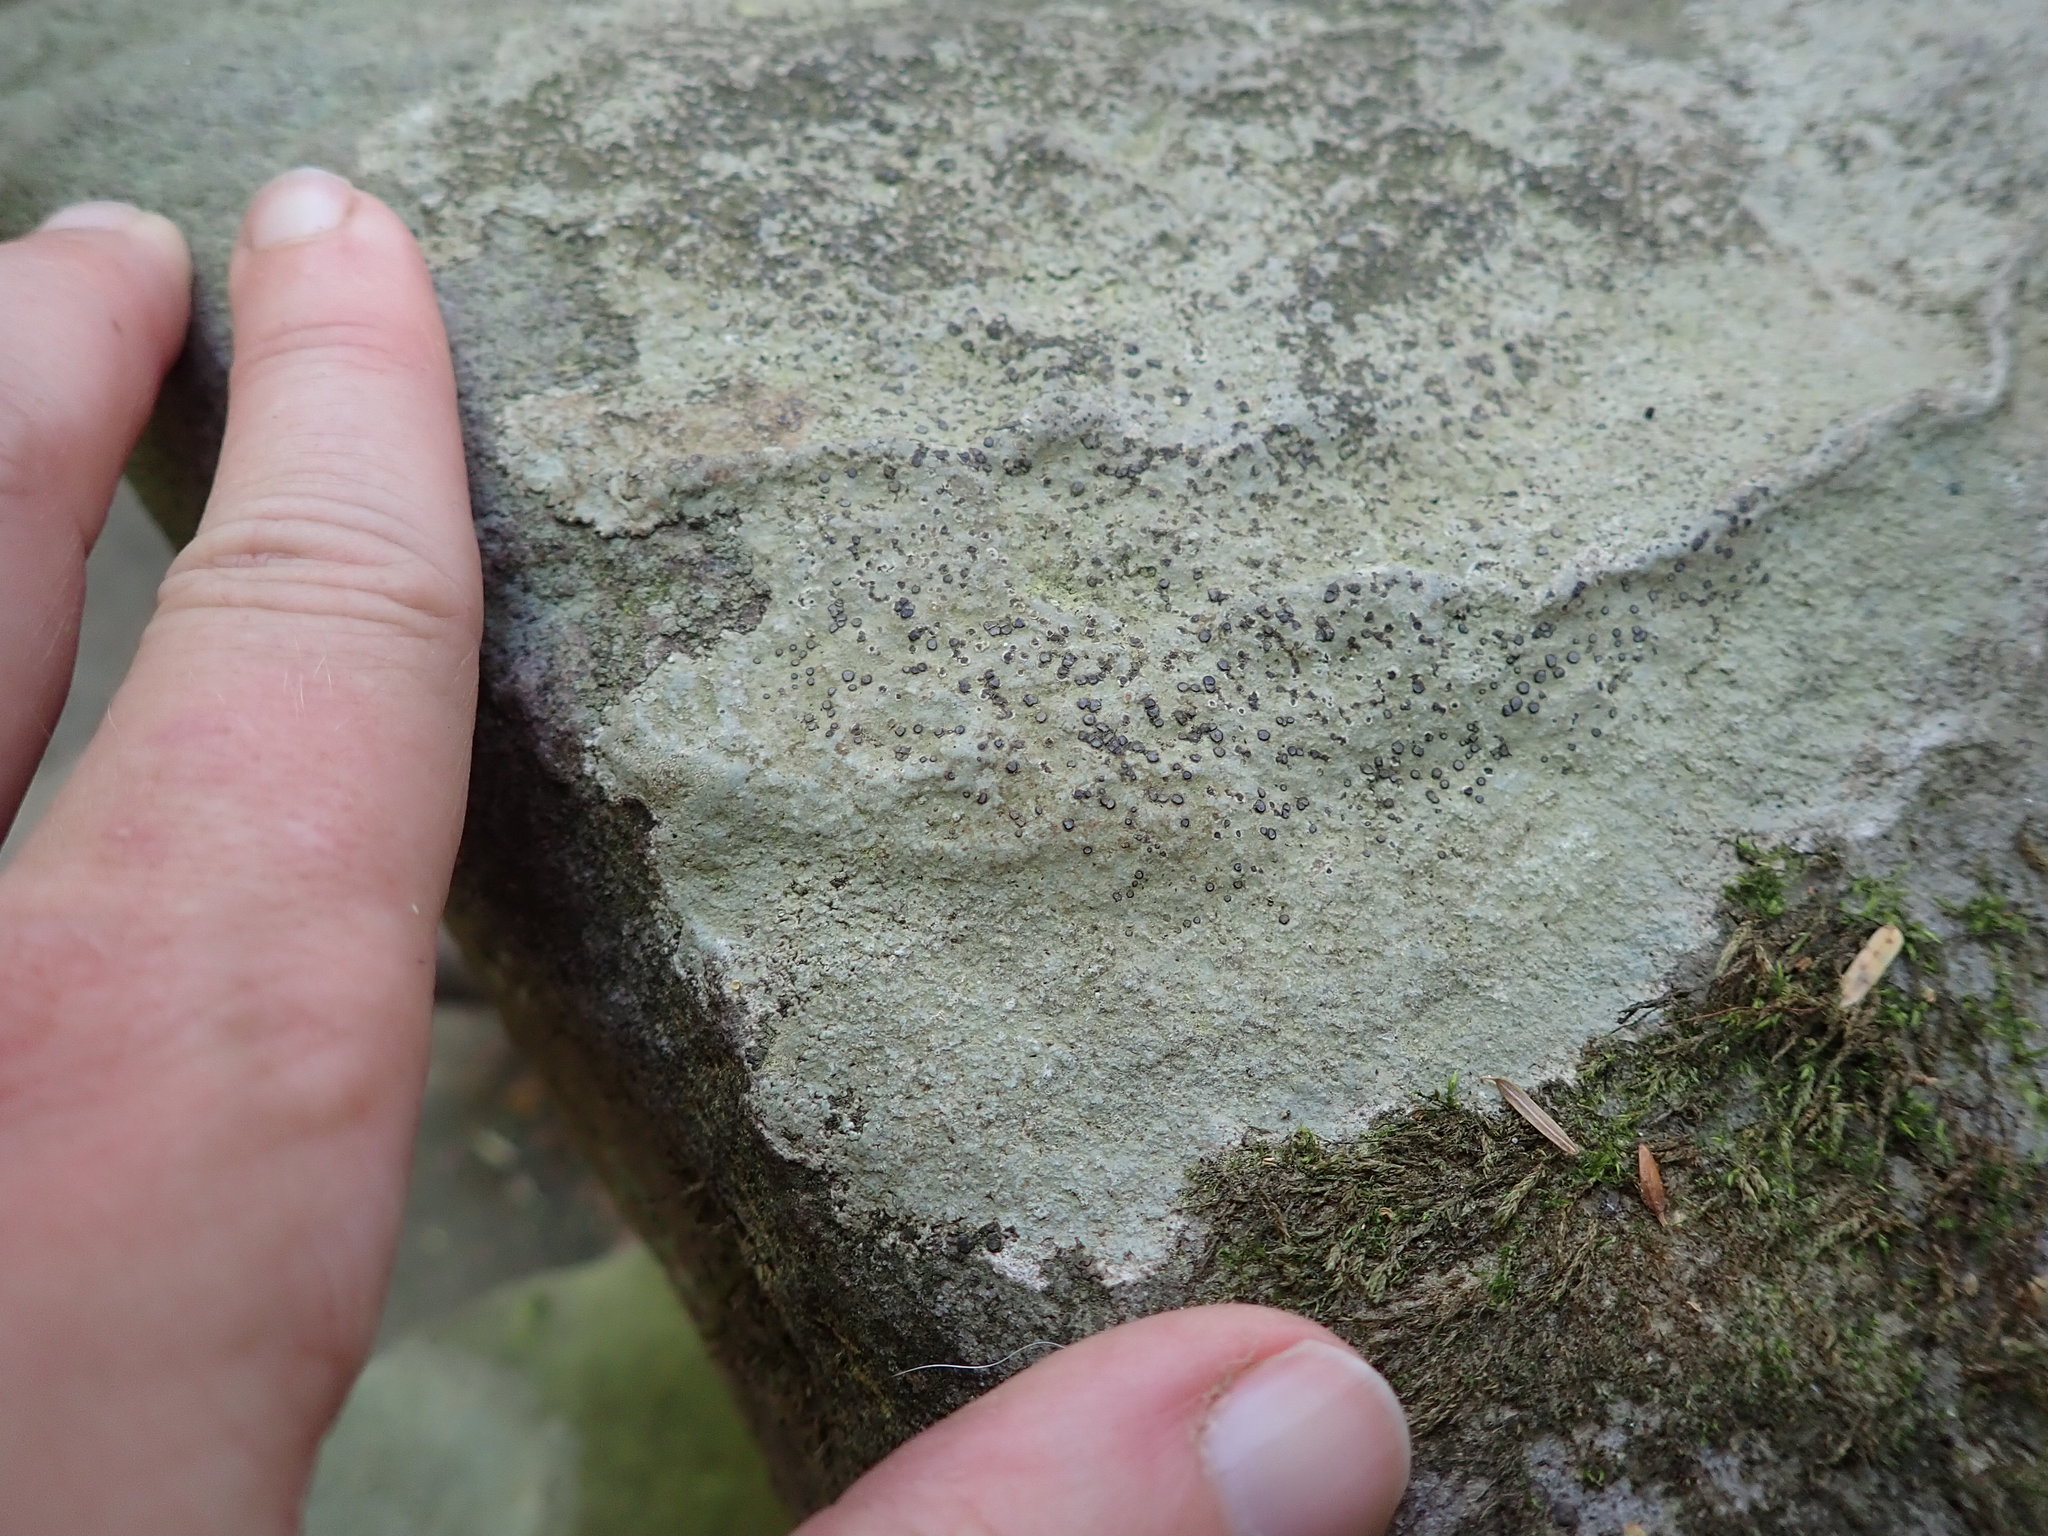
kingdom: Fungi
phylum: Ascomycota
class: Lecanoromycetes
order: Lecideales
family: Lecideaceae
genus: Porpidia
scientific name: Porpidia albocaerulescens
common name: Smokey-eyed boulder lichen
